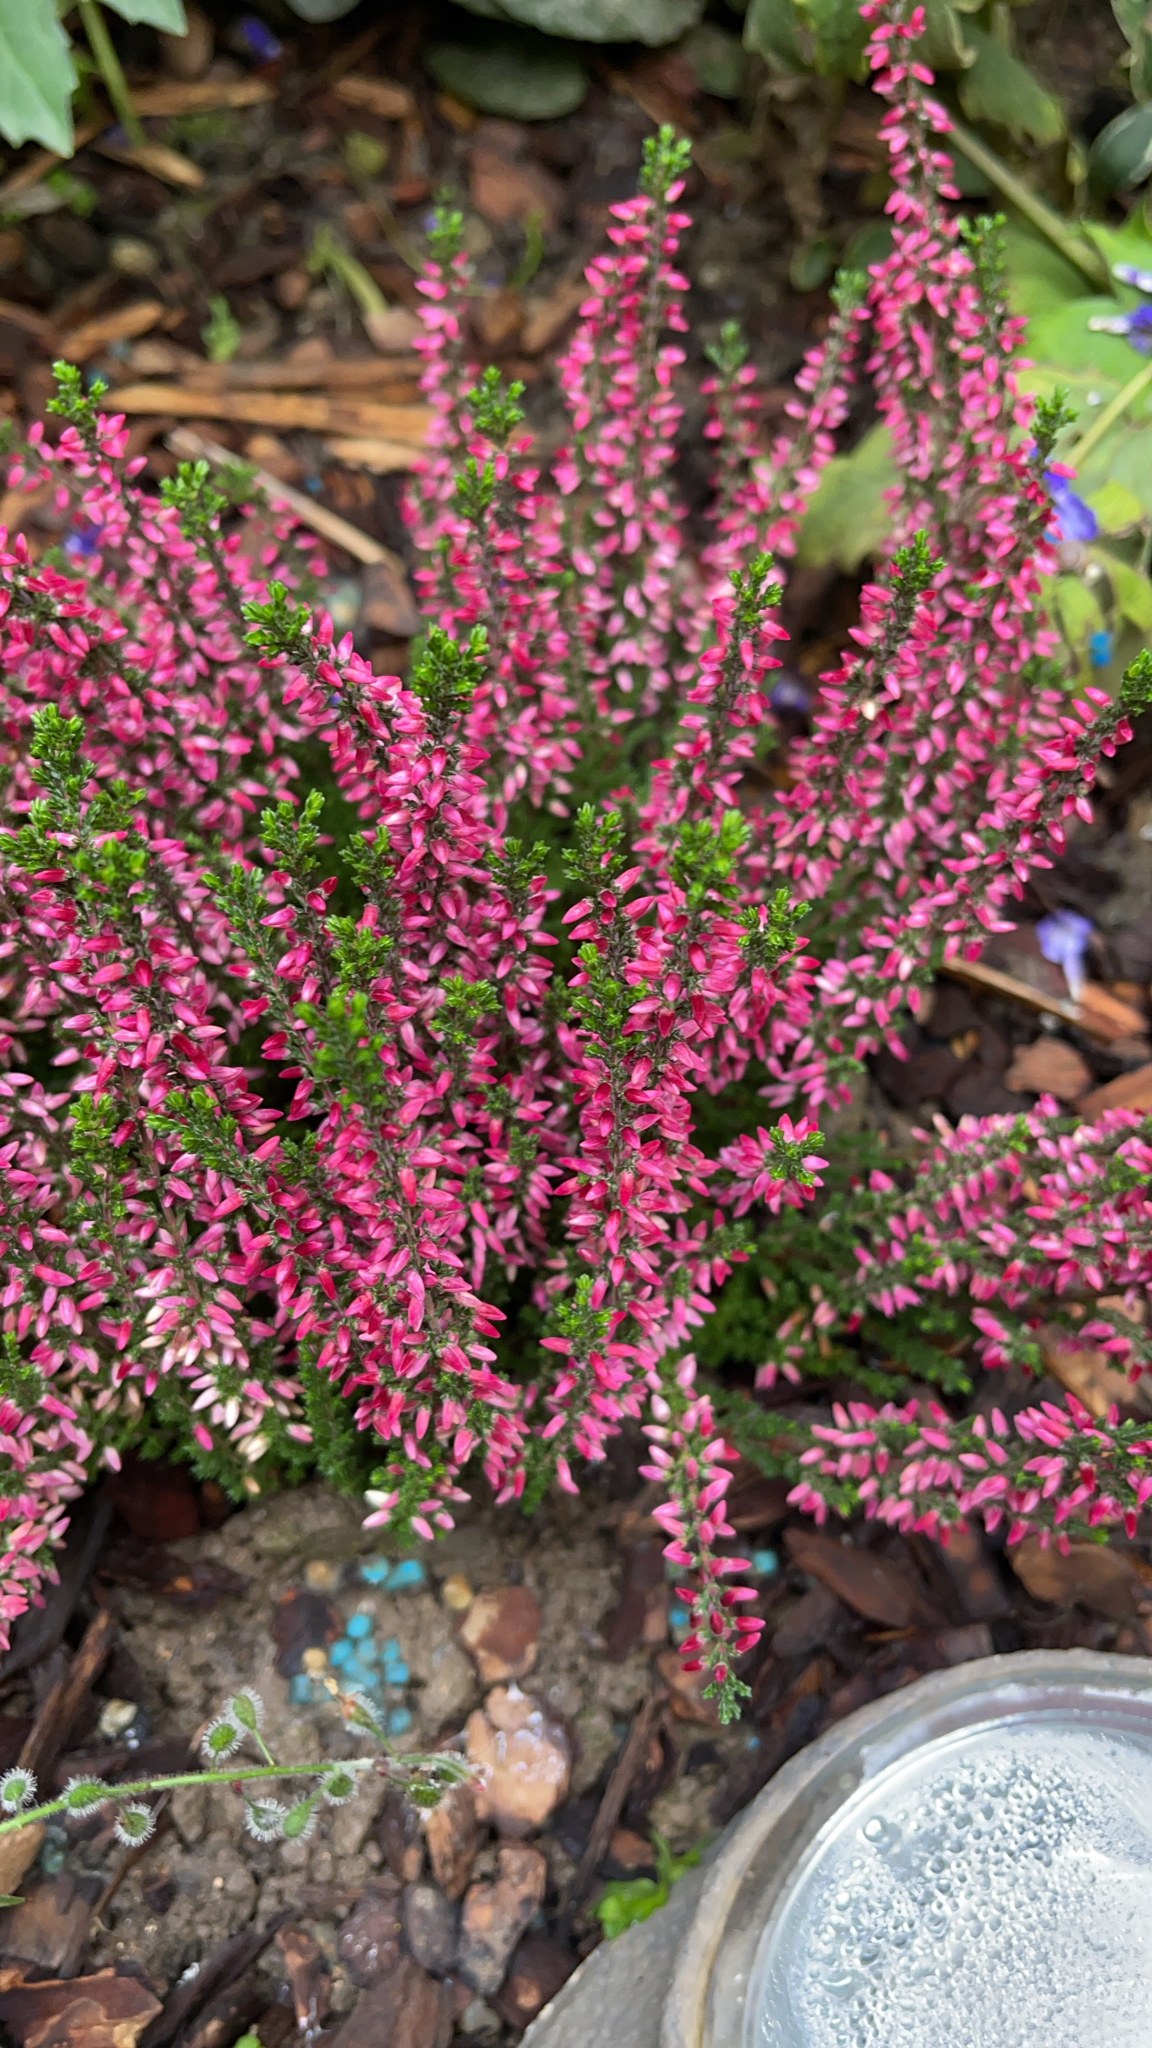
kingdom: Plantae
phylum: Tracheophyta
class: Magnoliopsida
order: Ericales
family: Ericaceae
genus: Calluna
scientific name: Calluna vulgaris
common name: Heather
